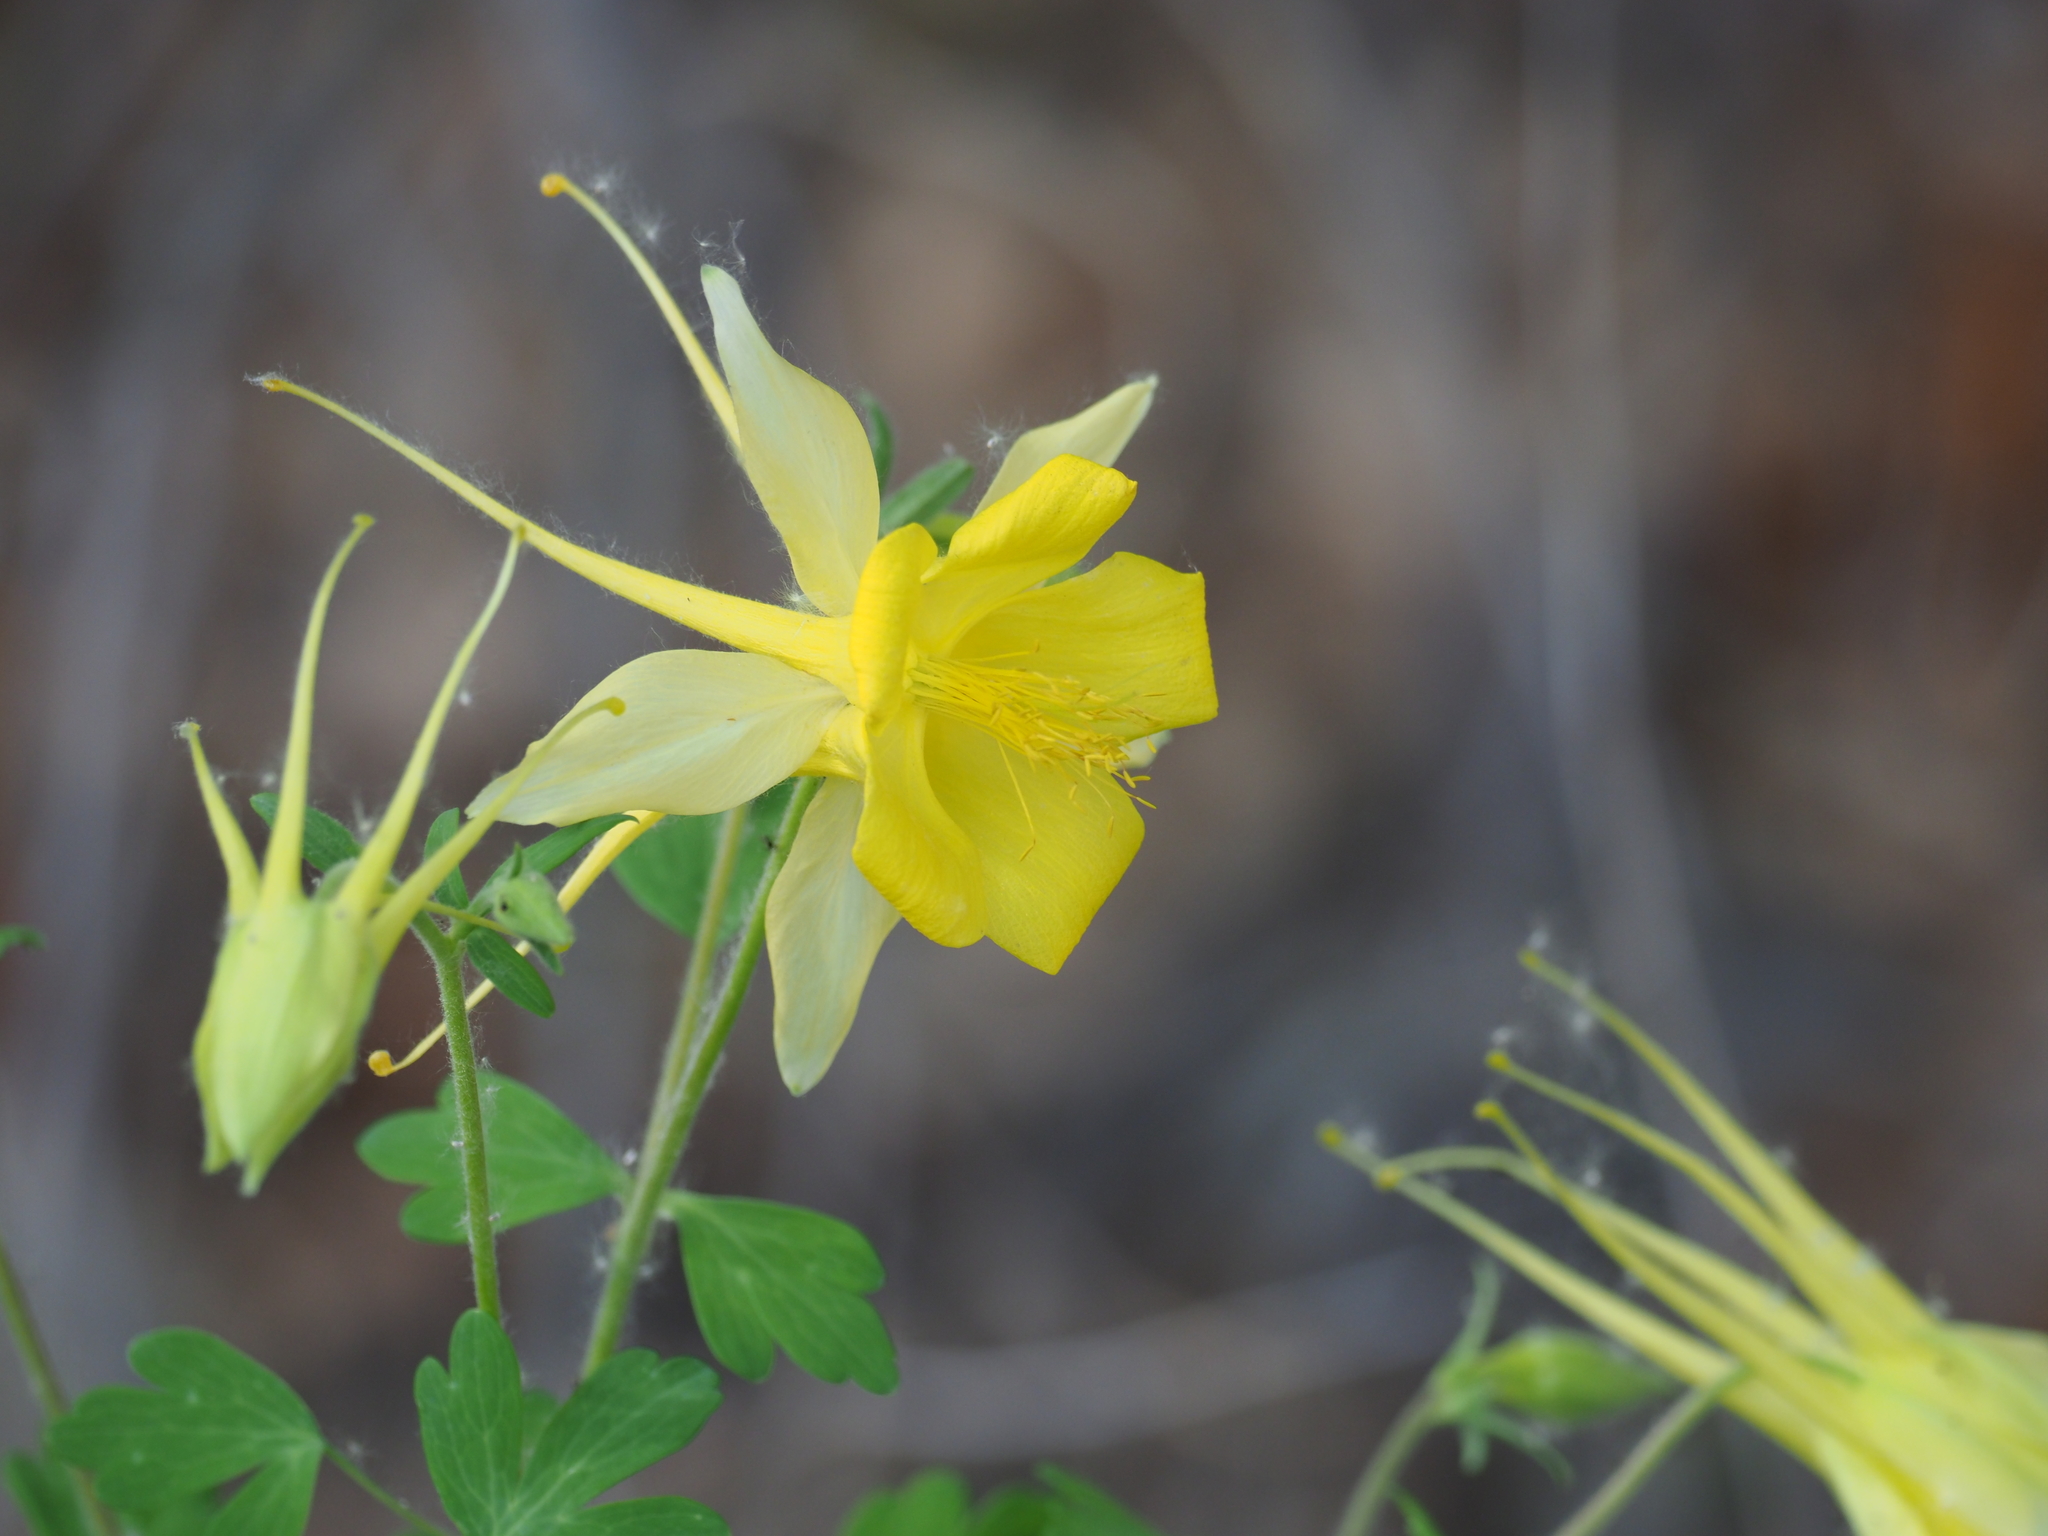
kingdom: Plantae
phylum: Tracheophyta
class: Magnoliopsida
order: Ranunculales
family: Ranunculaceae
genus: Aquilegia
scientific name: Aquilegia chrysantha
